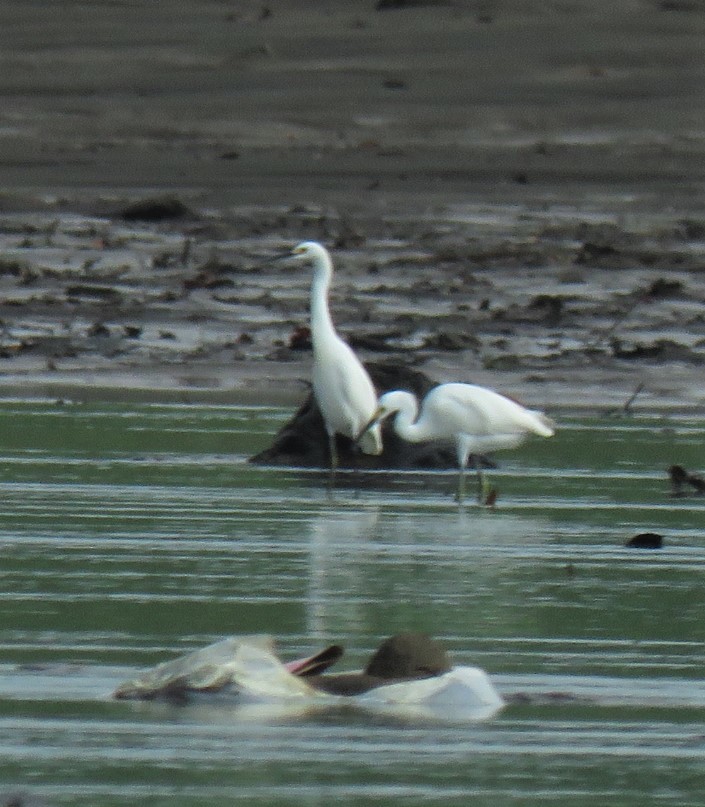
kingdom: Animalia
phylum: Chordata
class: Aves
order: Pelecaniformes
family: Ardeidae
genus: Egretta
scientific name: Egretta thula
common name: Snowy egret
